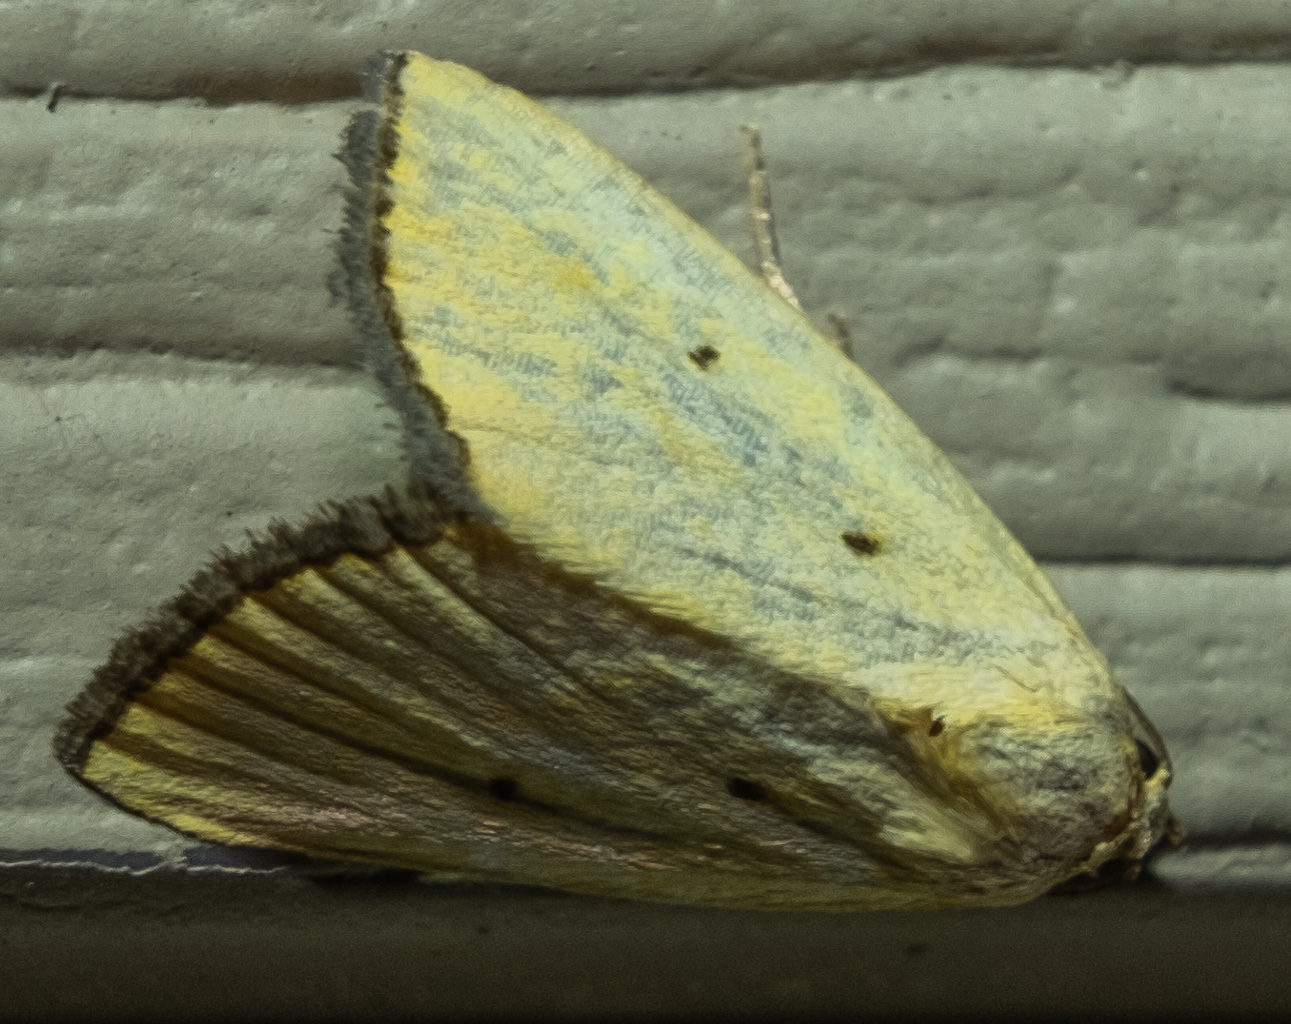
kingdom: Animalia
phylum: Arthropoda
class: Insecta
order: Lepidoptera
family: Noctuidae
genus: Marimatha
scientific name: Marimatha nigrofimbria
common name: Black-bordered lemon moth
